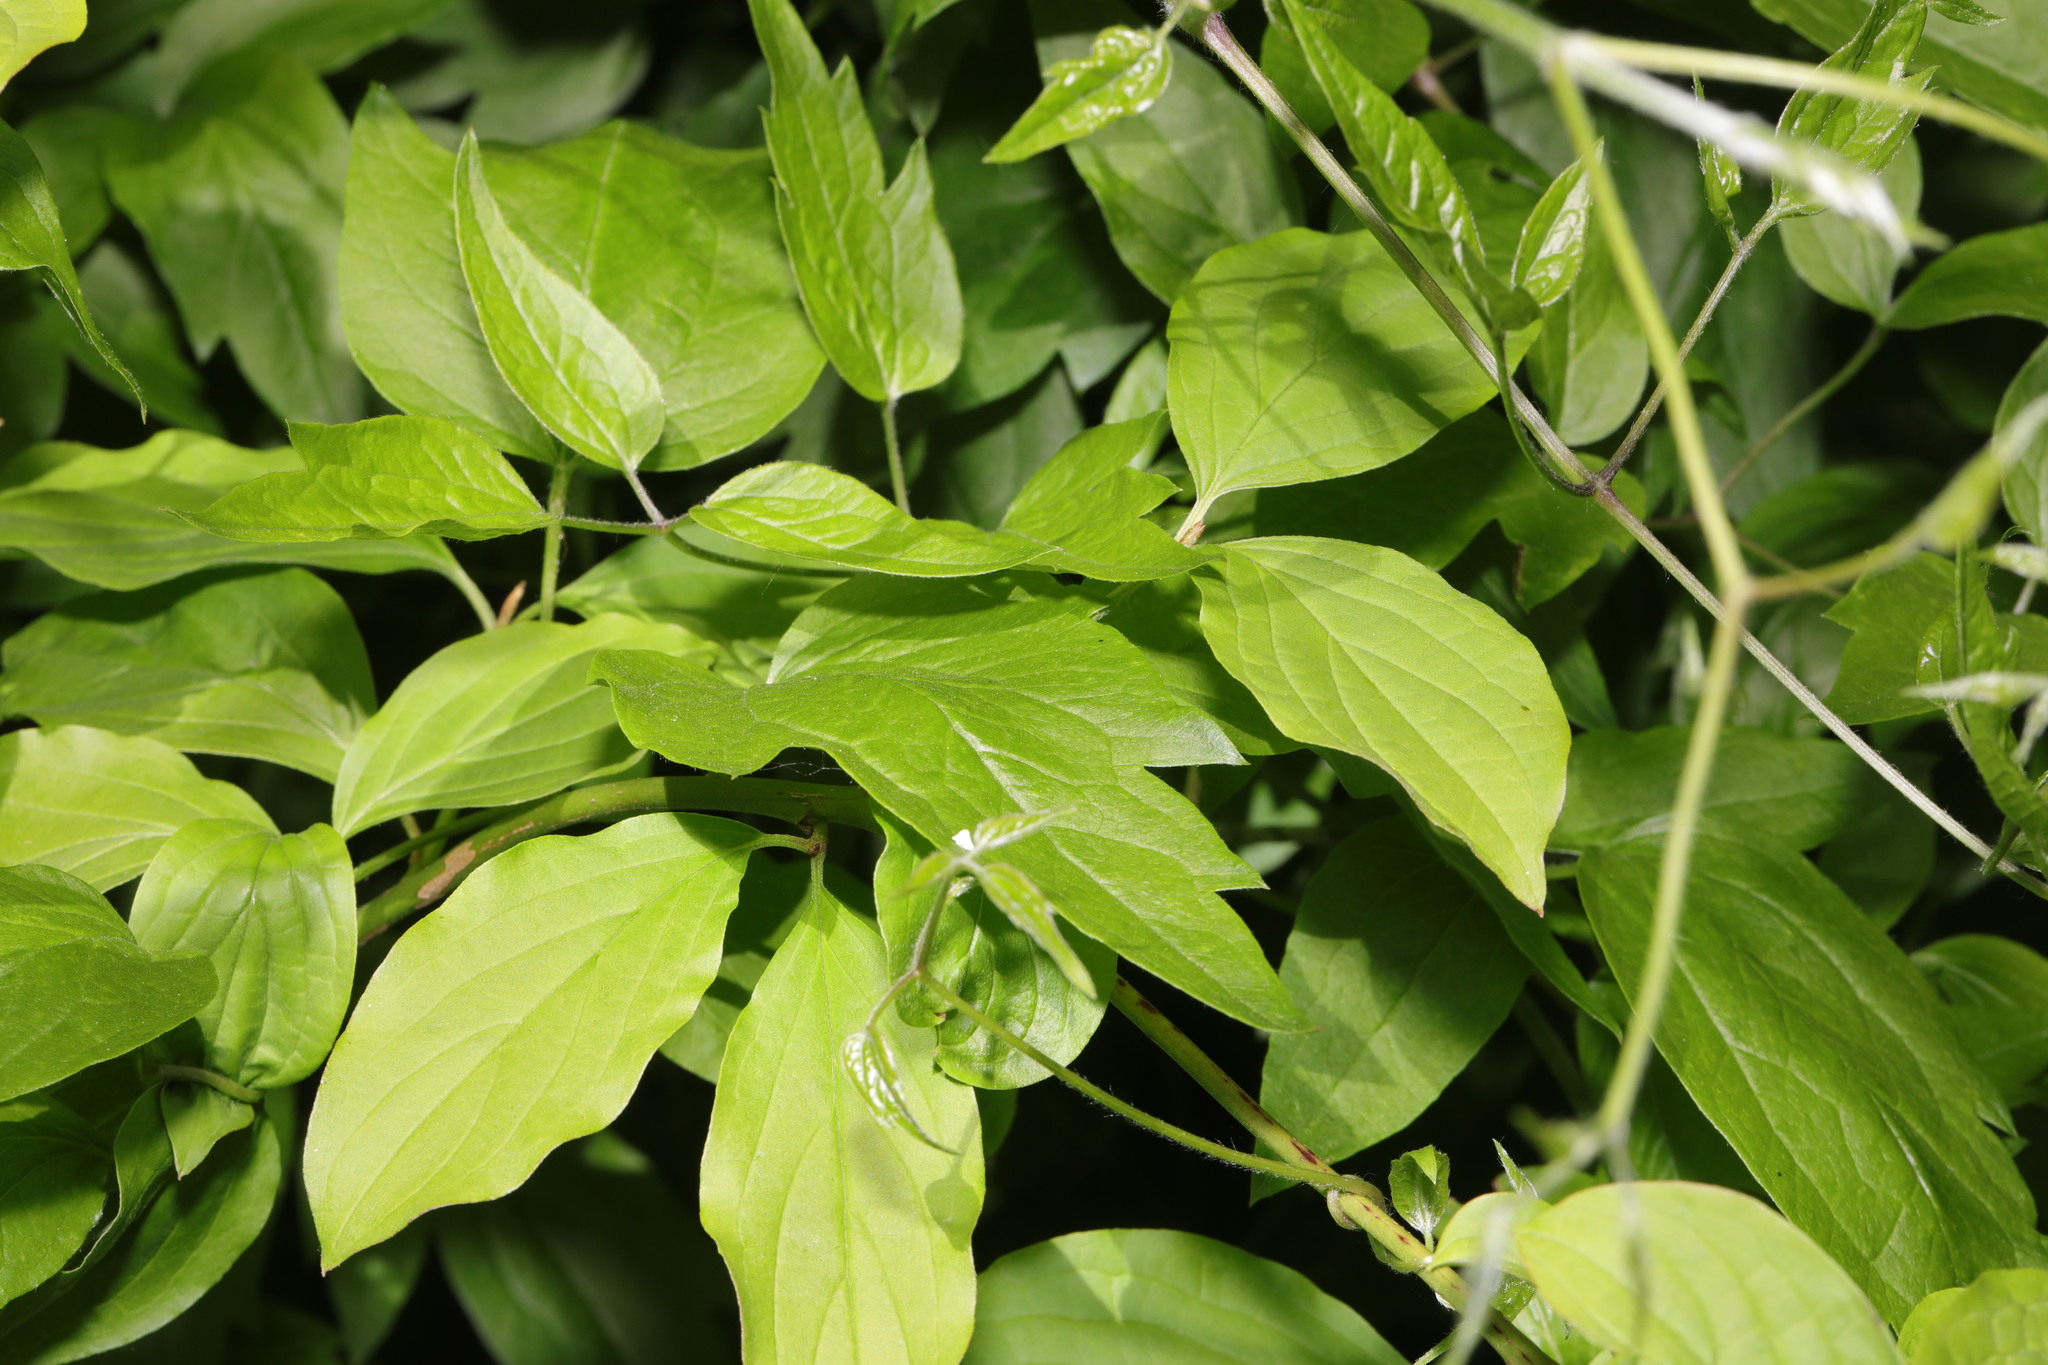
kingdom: Plantae
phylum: Tracheophyta
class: Magnoliopsida
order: Ranunculales
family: Ranunculaceae
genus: Clematis
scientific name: Clematis vitalba
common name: Evergreen clematis
